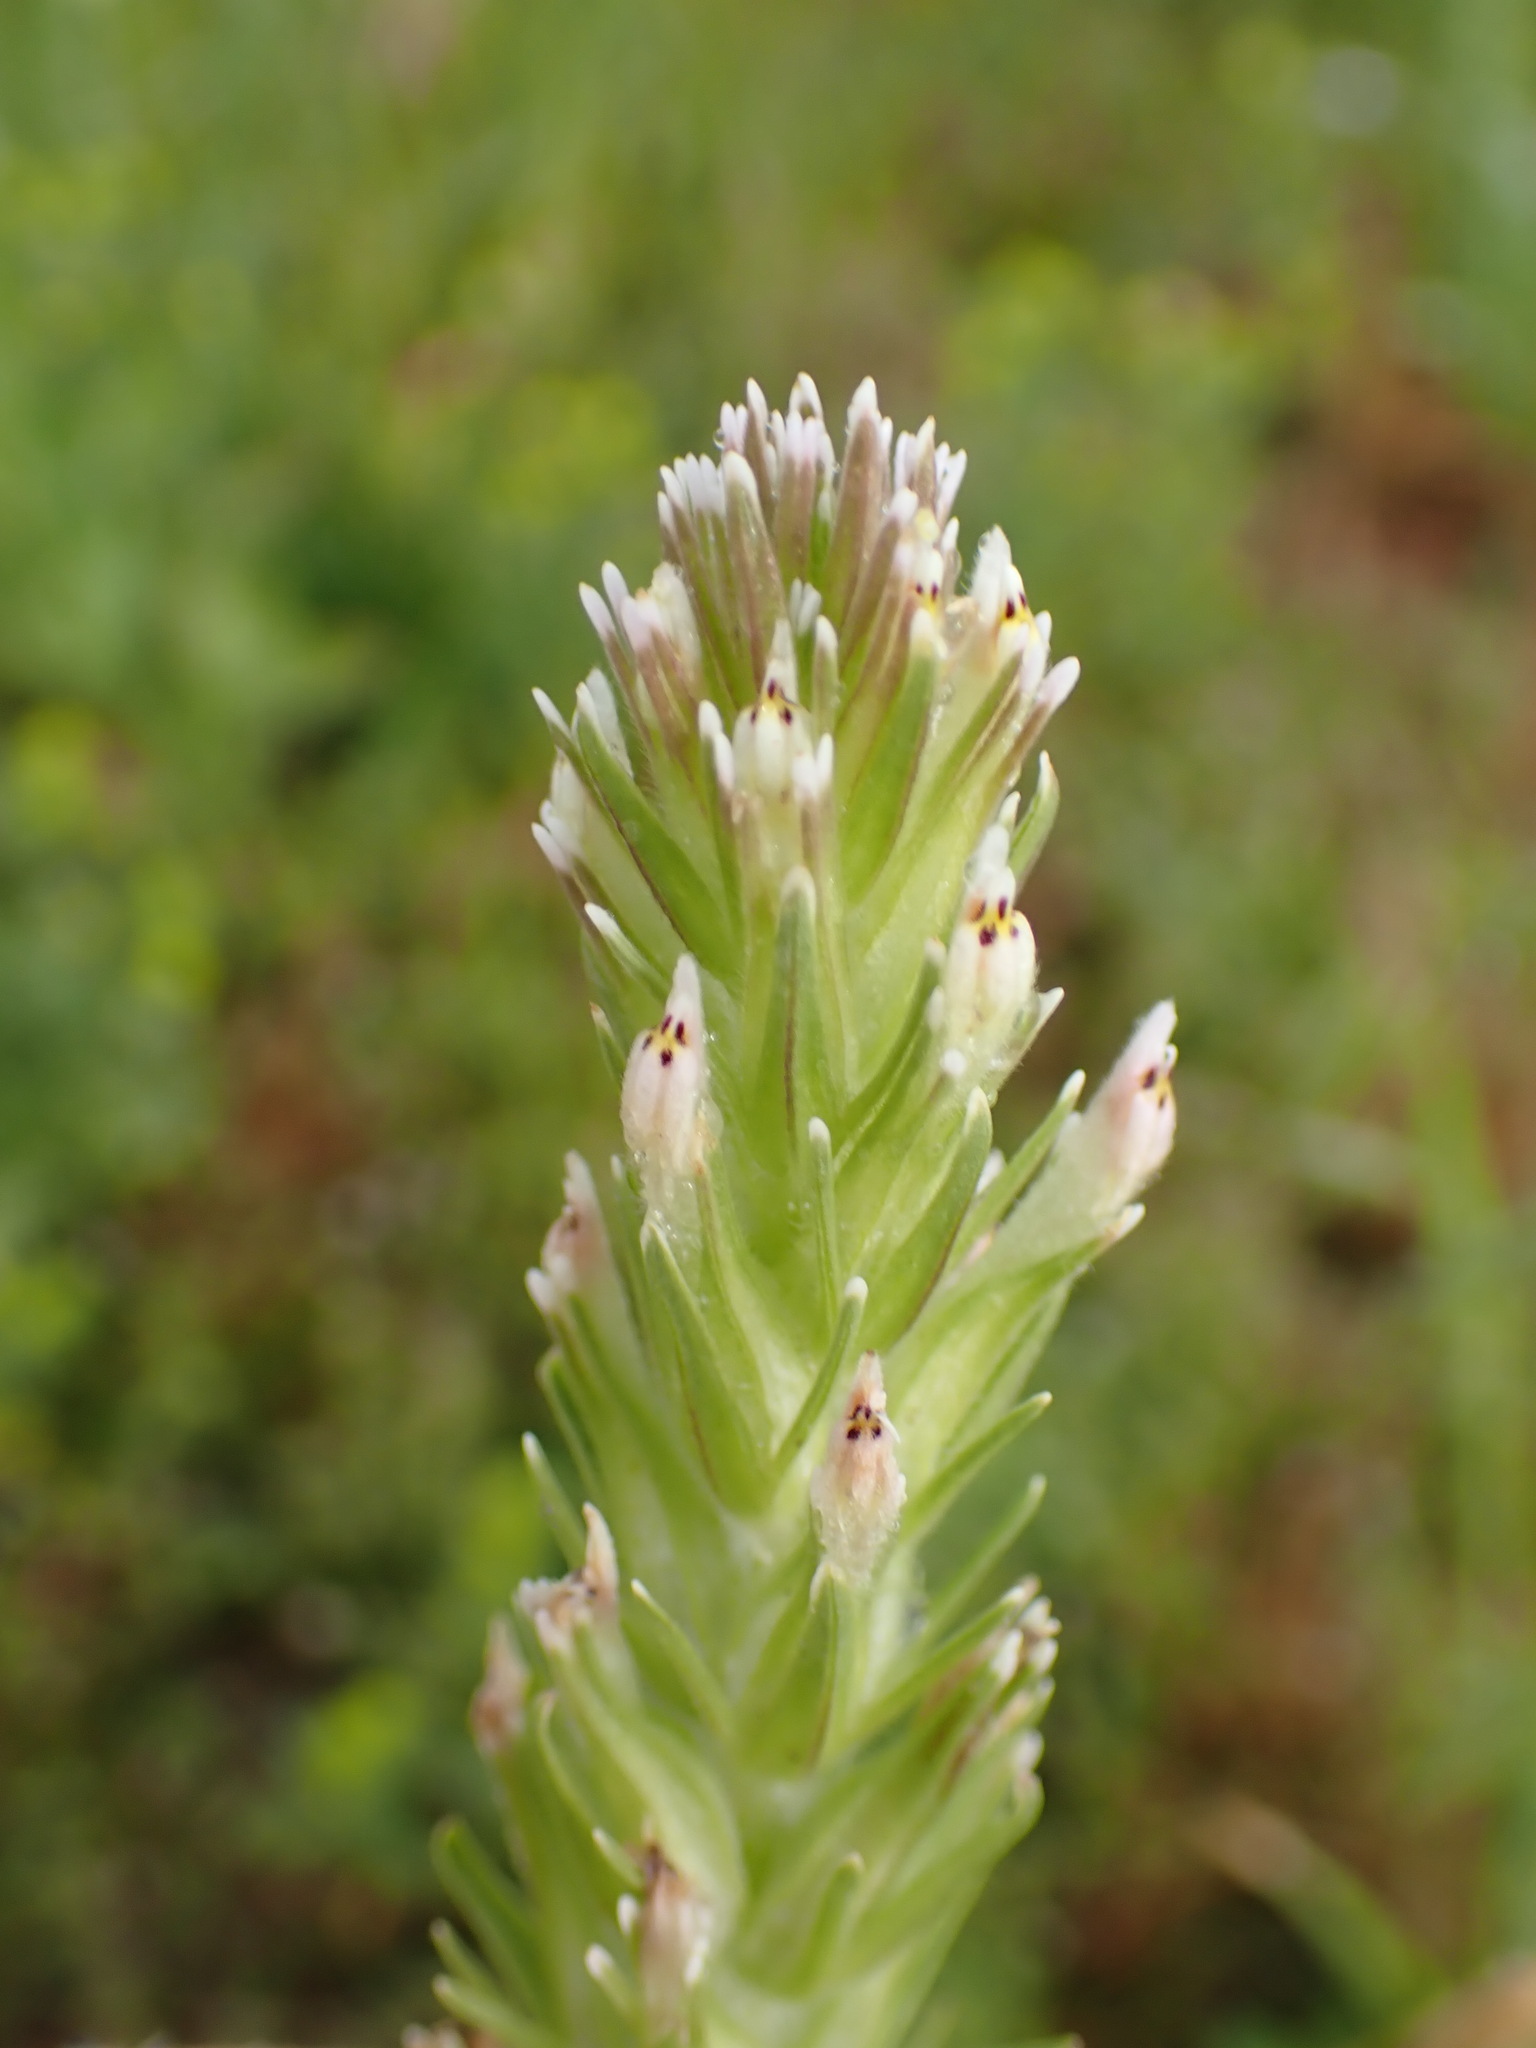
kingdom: Plantae
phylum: Tracheophyta
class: Magnoliopsida
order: Lamiales
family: Orobanchaceae
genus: Castilleja
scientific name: Castilleja attenuata
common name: Valley tassels
